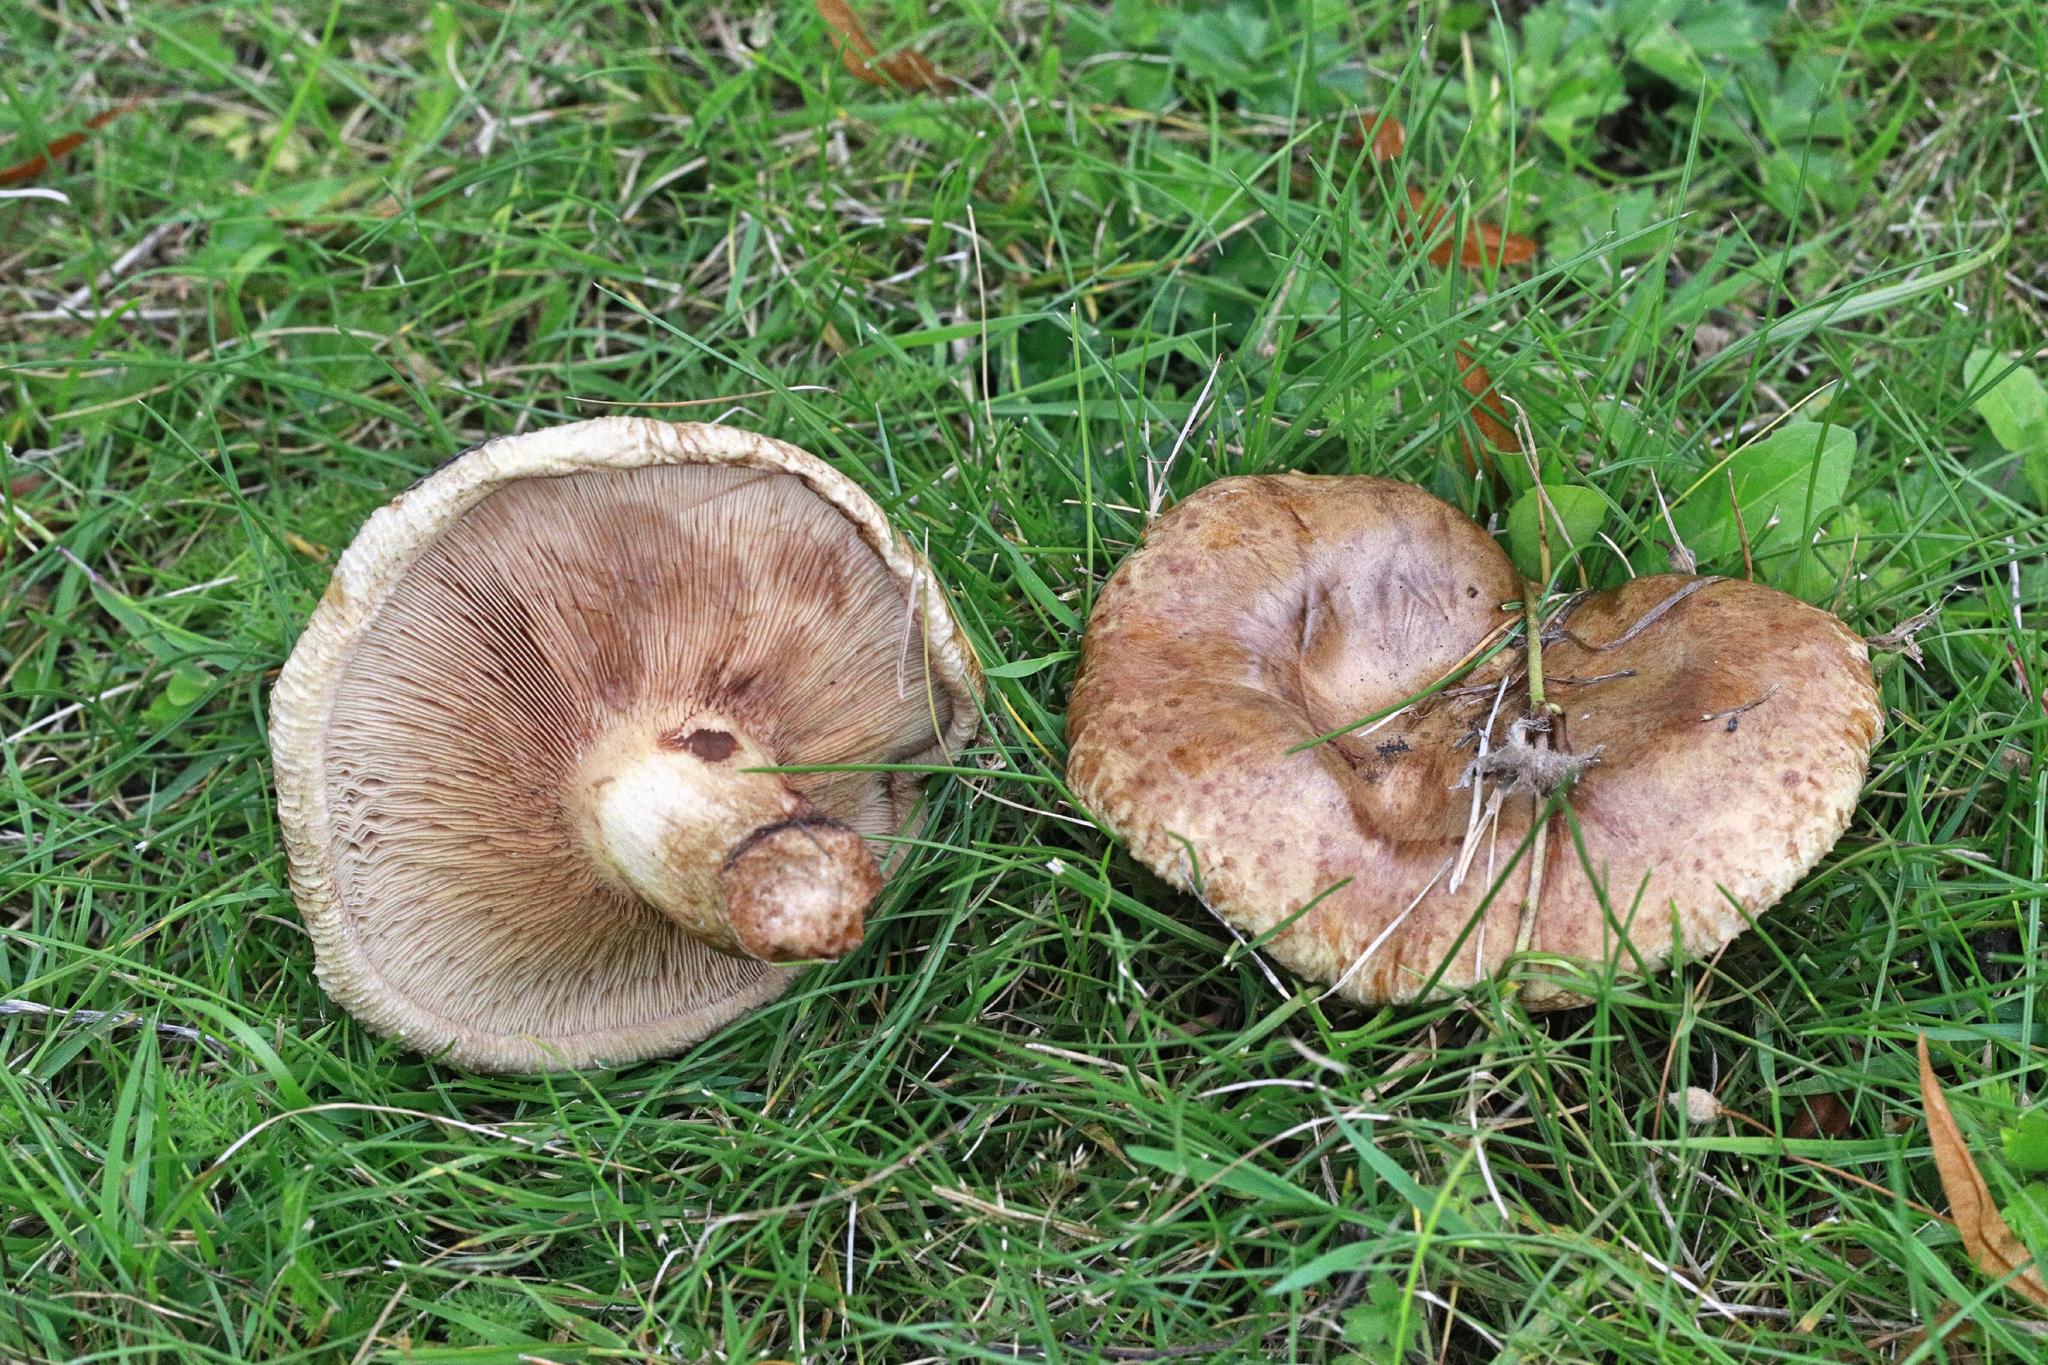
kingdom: Fungi
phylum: Basidiomycota
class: Agaricomycetes
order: Boletales
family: Paxillaceae
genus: Paxillus
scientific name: Paxillus involutus
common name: Brown roll rim
